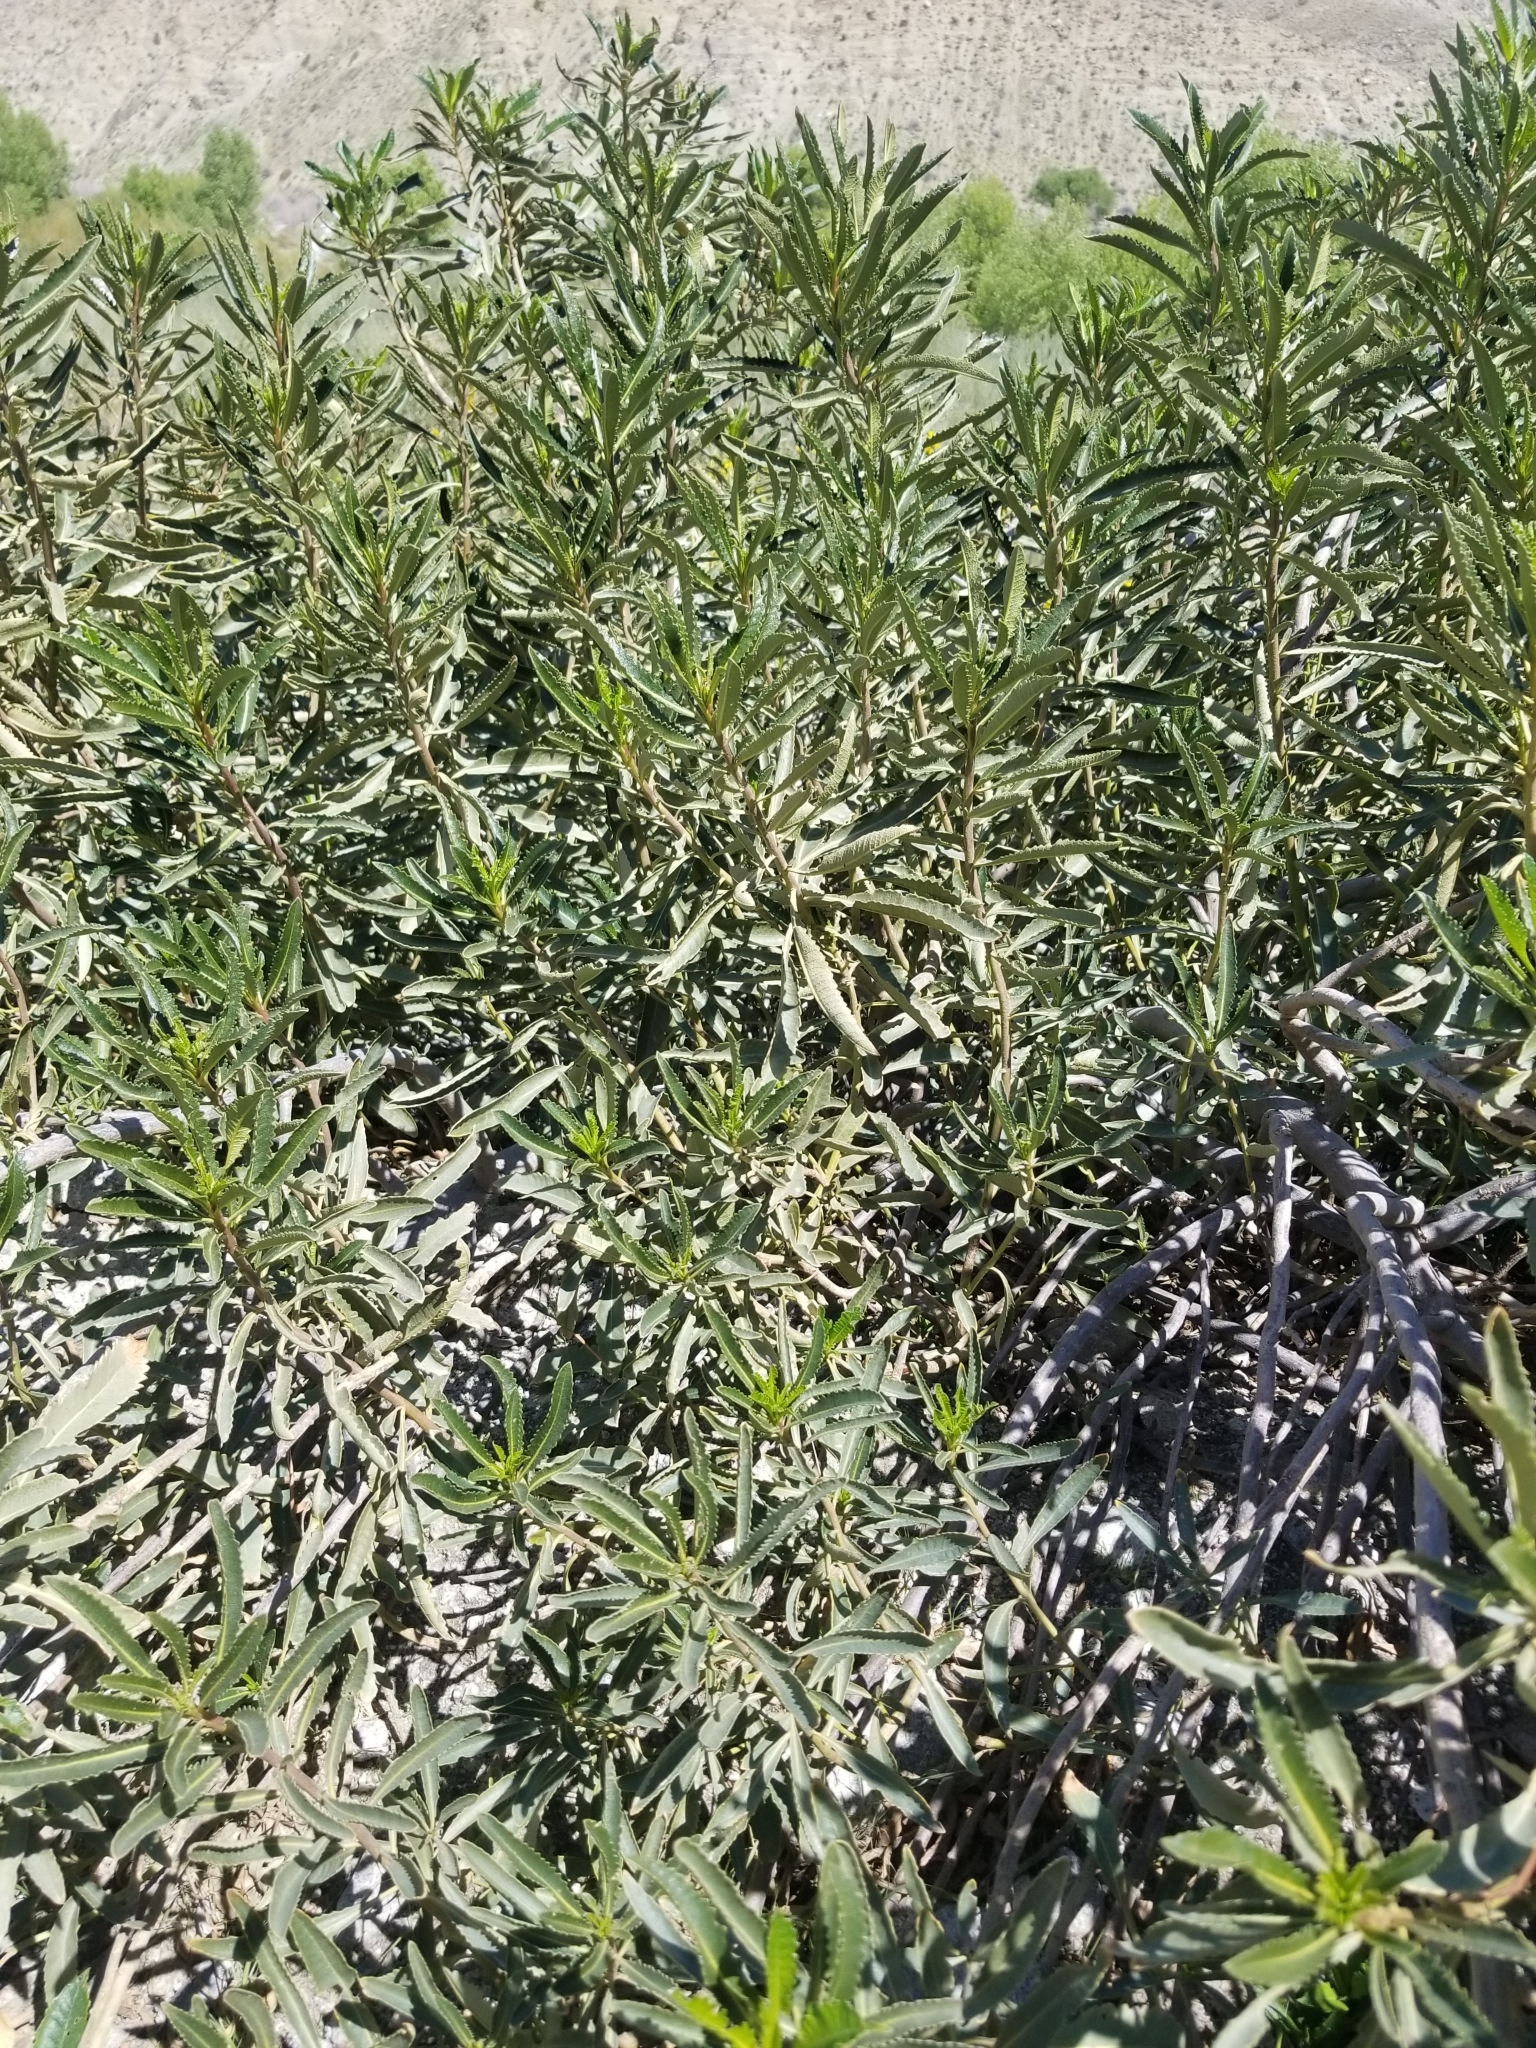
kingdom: Plantae
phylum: Tracheophyta
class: Magnoliopsida
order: Boraginales
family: Namaceae
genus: Eriodictyon
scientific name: Eriodictyon trichocalyx
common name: Hairy yerba-santa
